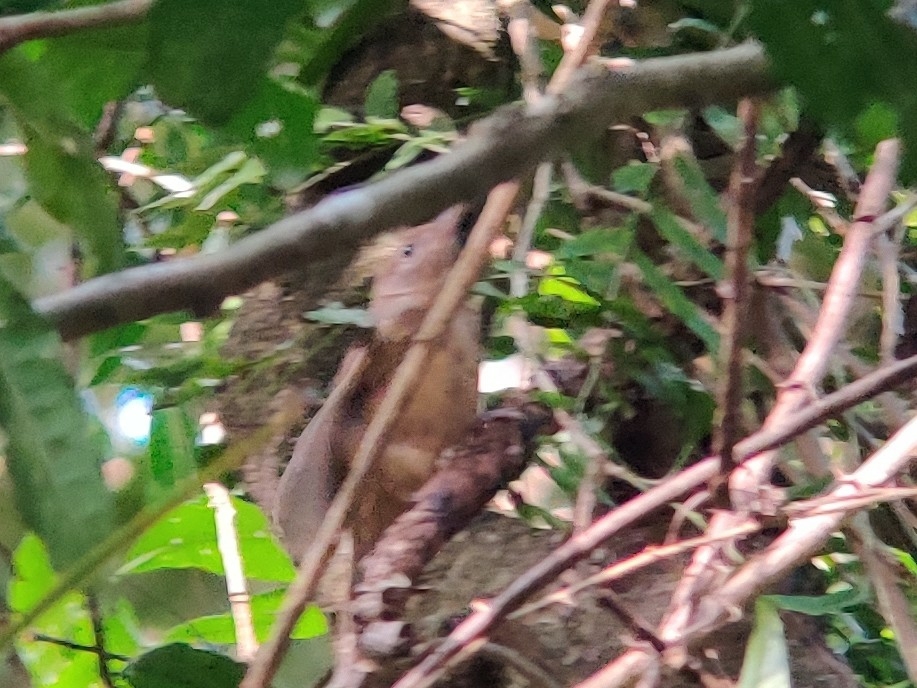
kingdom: Animalia
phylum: Chordata
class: Aves
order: Passeriformes
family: Pachycephalidae
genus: Colluricincla
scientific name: Colluricincla rufogaster
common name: Rufous shrikethrush
